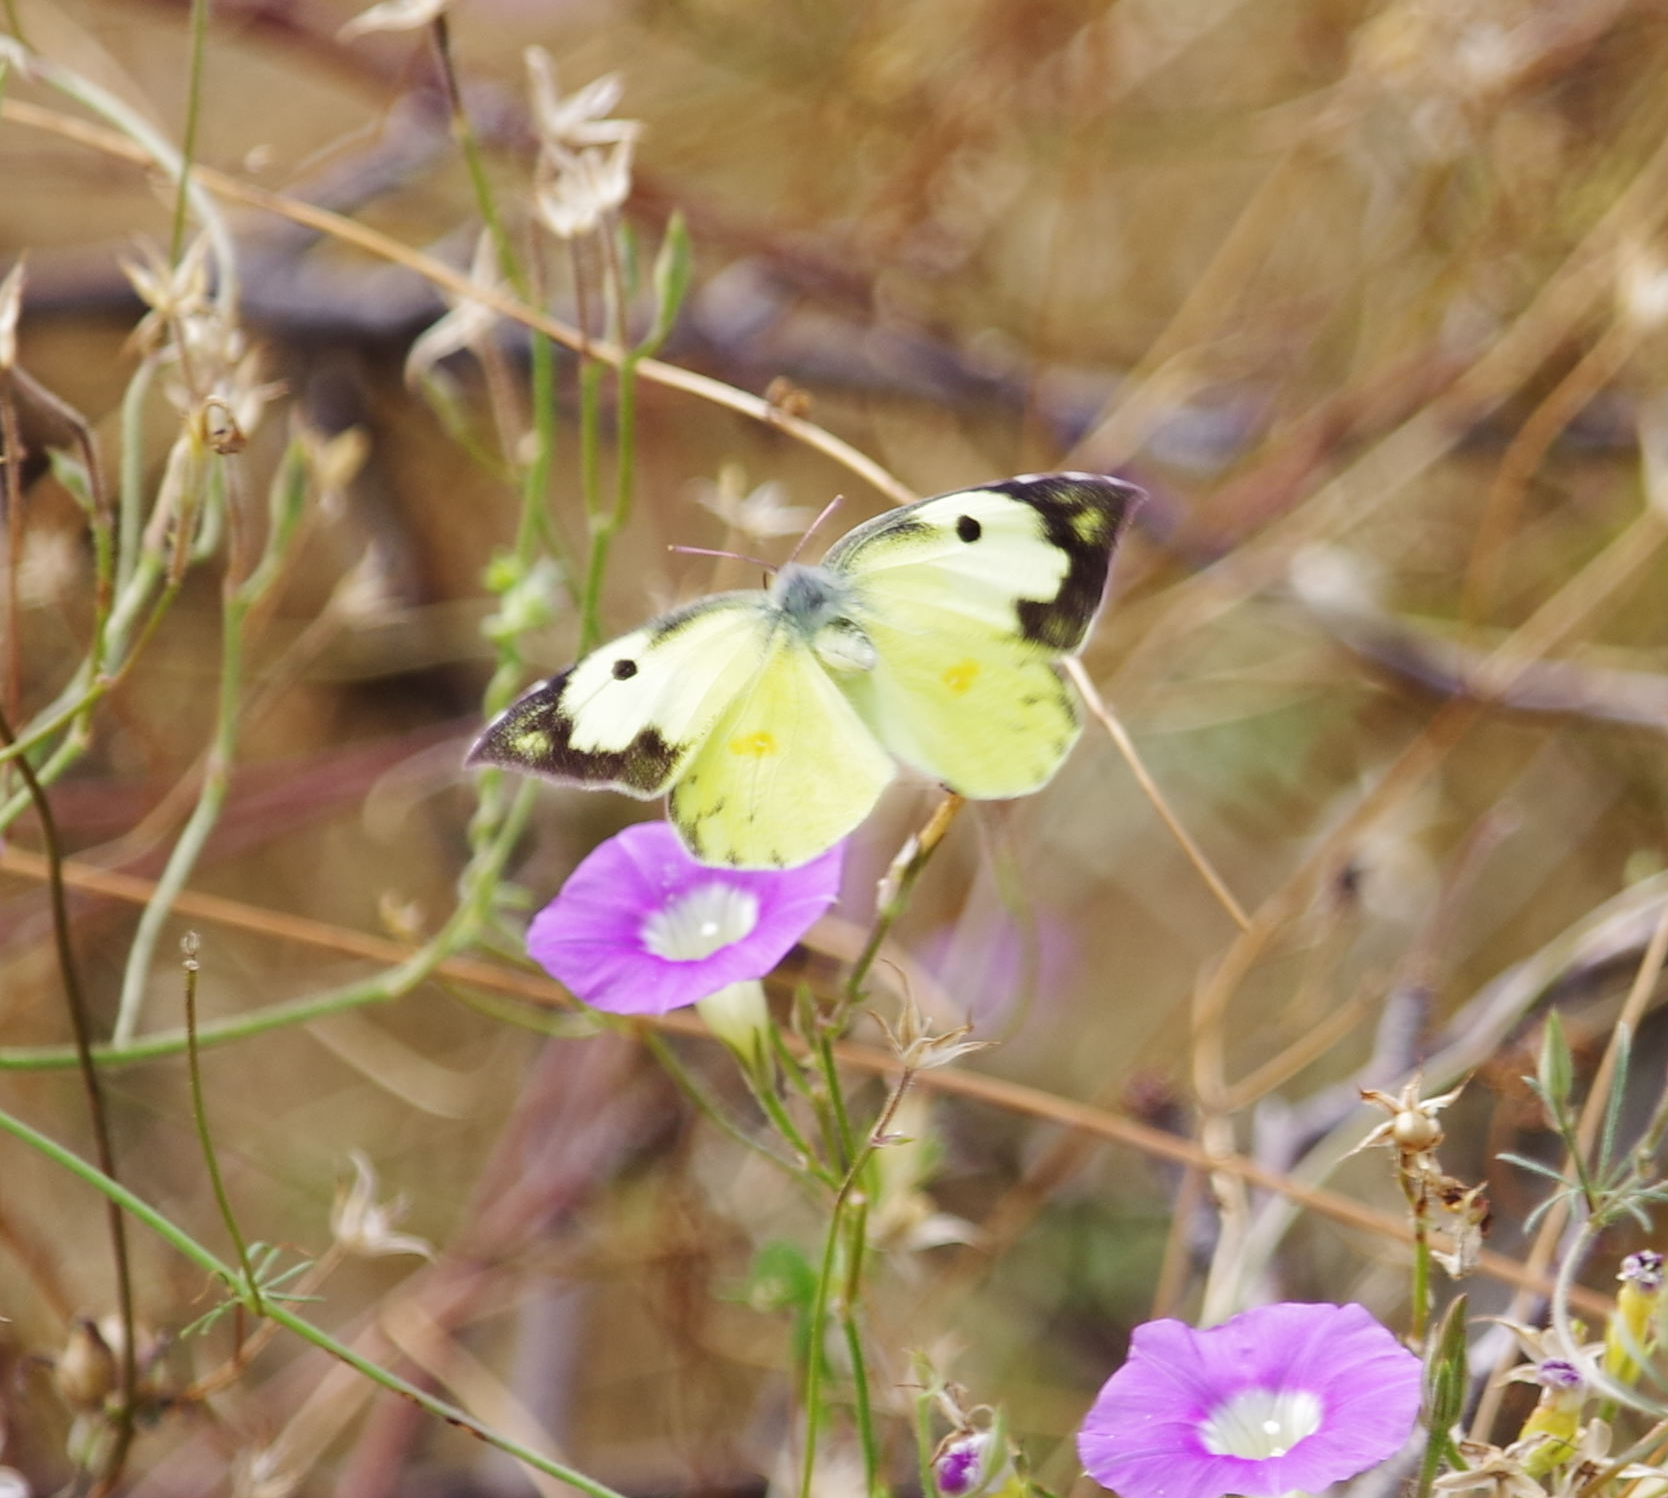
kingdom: Animalia
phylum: Arthropoda
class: Insecta
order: Lepidoptera
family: Pieridae
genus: Zerene
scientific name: Zerene cesonia
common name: Southern dogface
